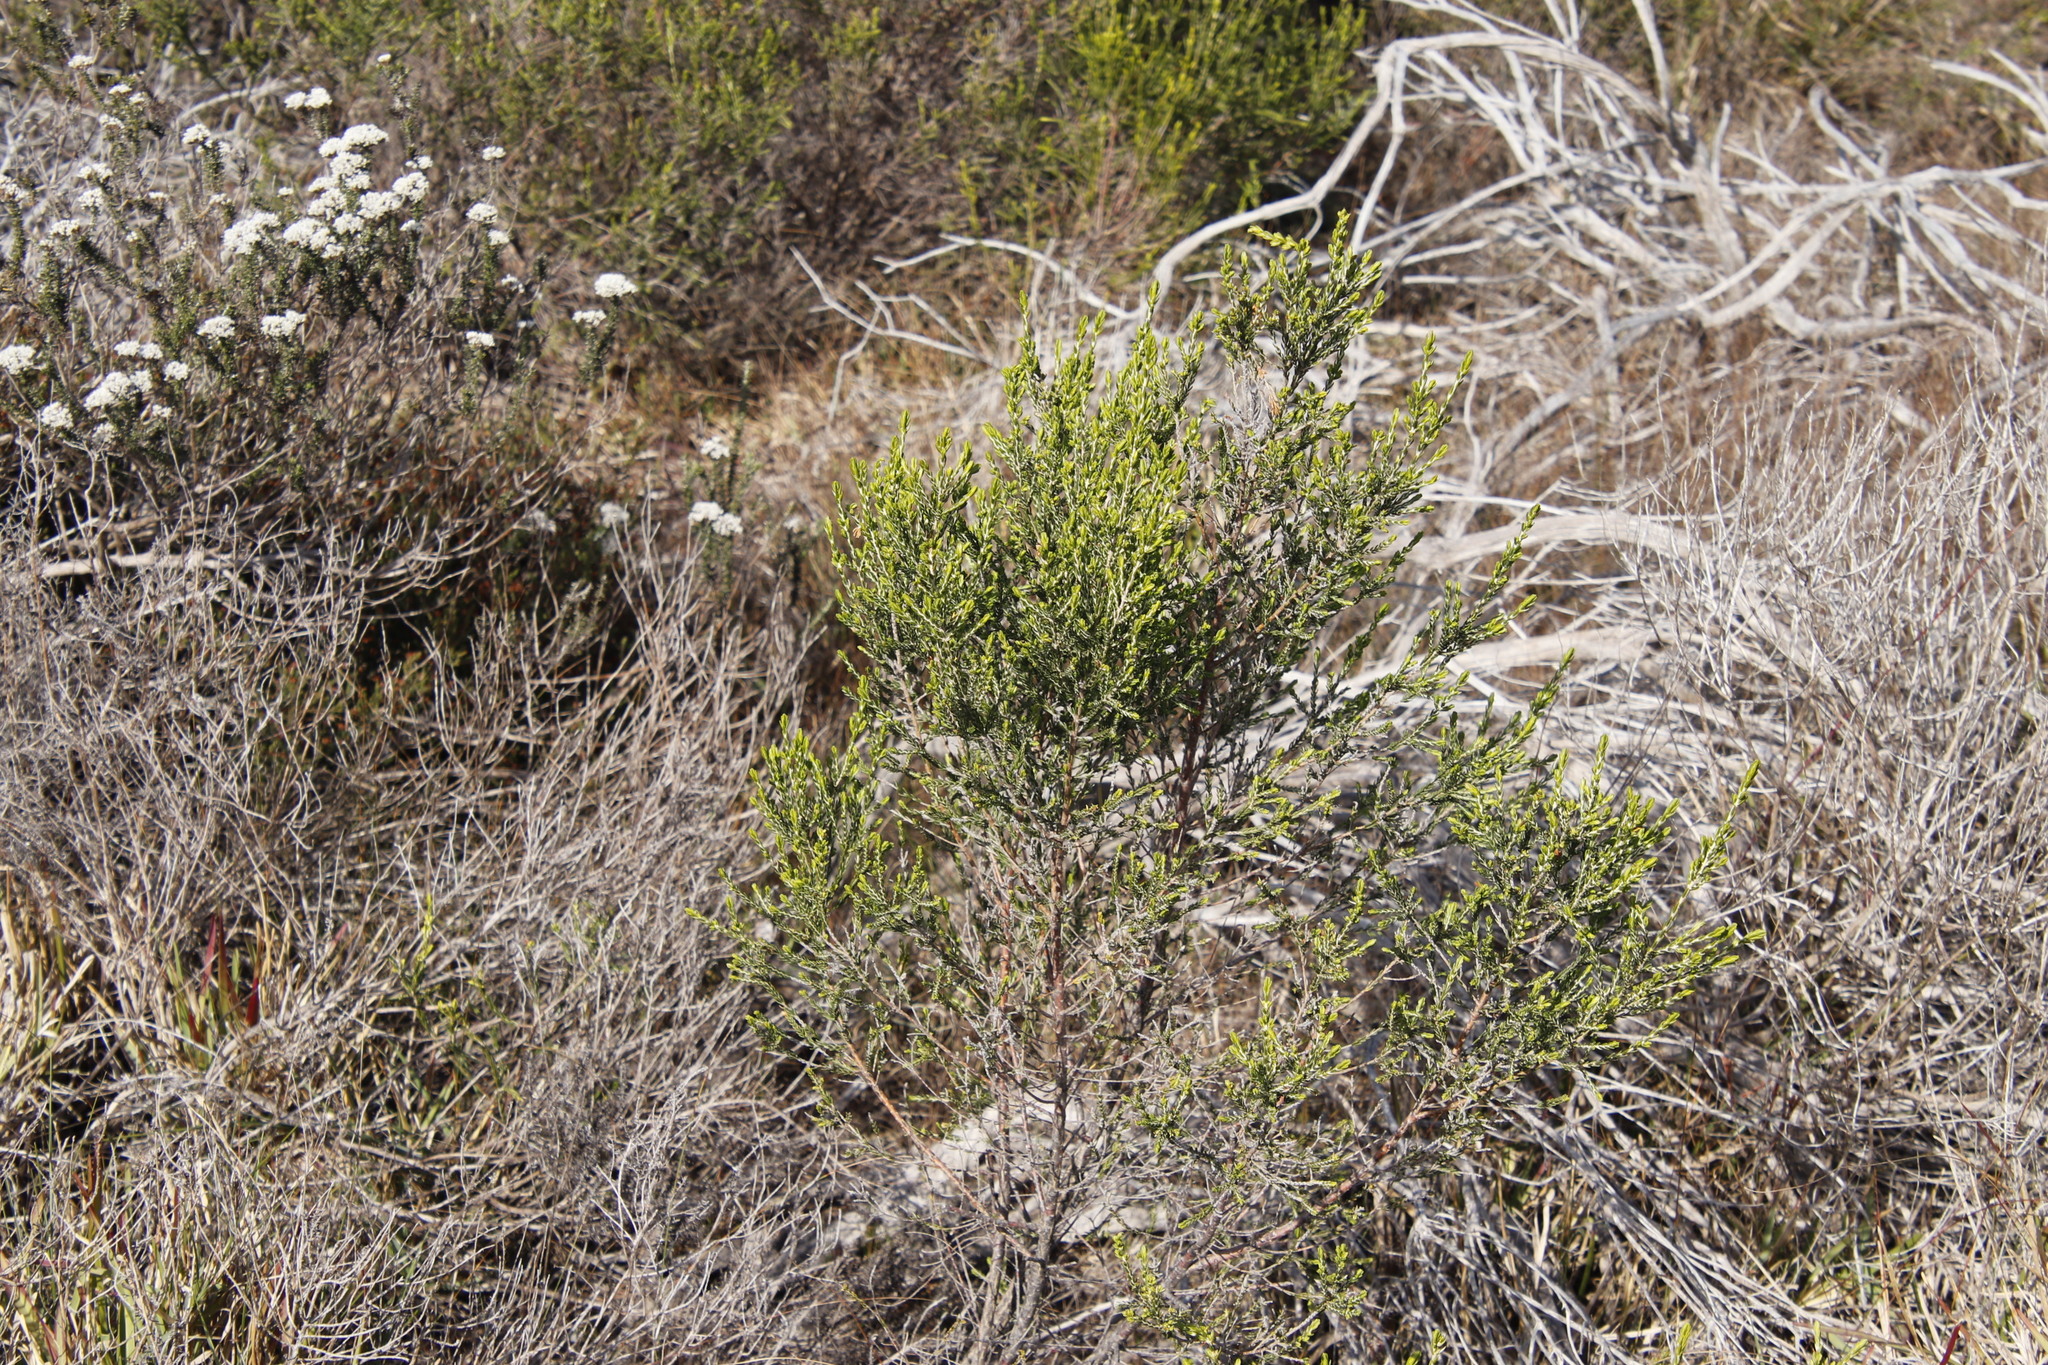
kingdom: Plantae
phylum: Tracheophyta
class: Magnoliopsida
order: Malvales
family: Thymelaeaceae
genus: Passerina
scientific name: Passerina corymbosa
